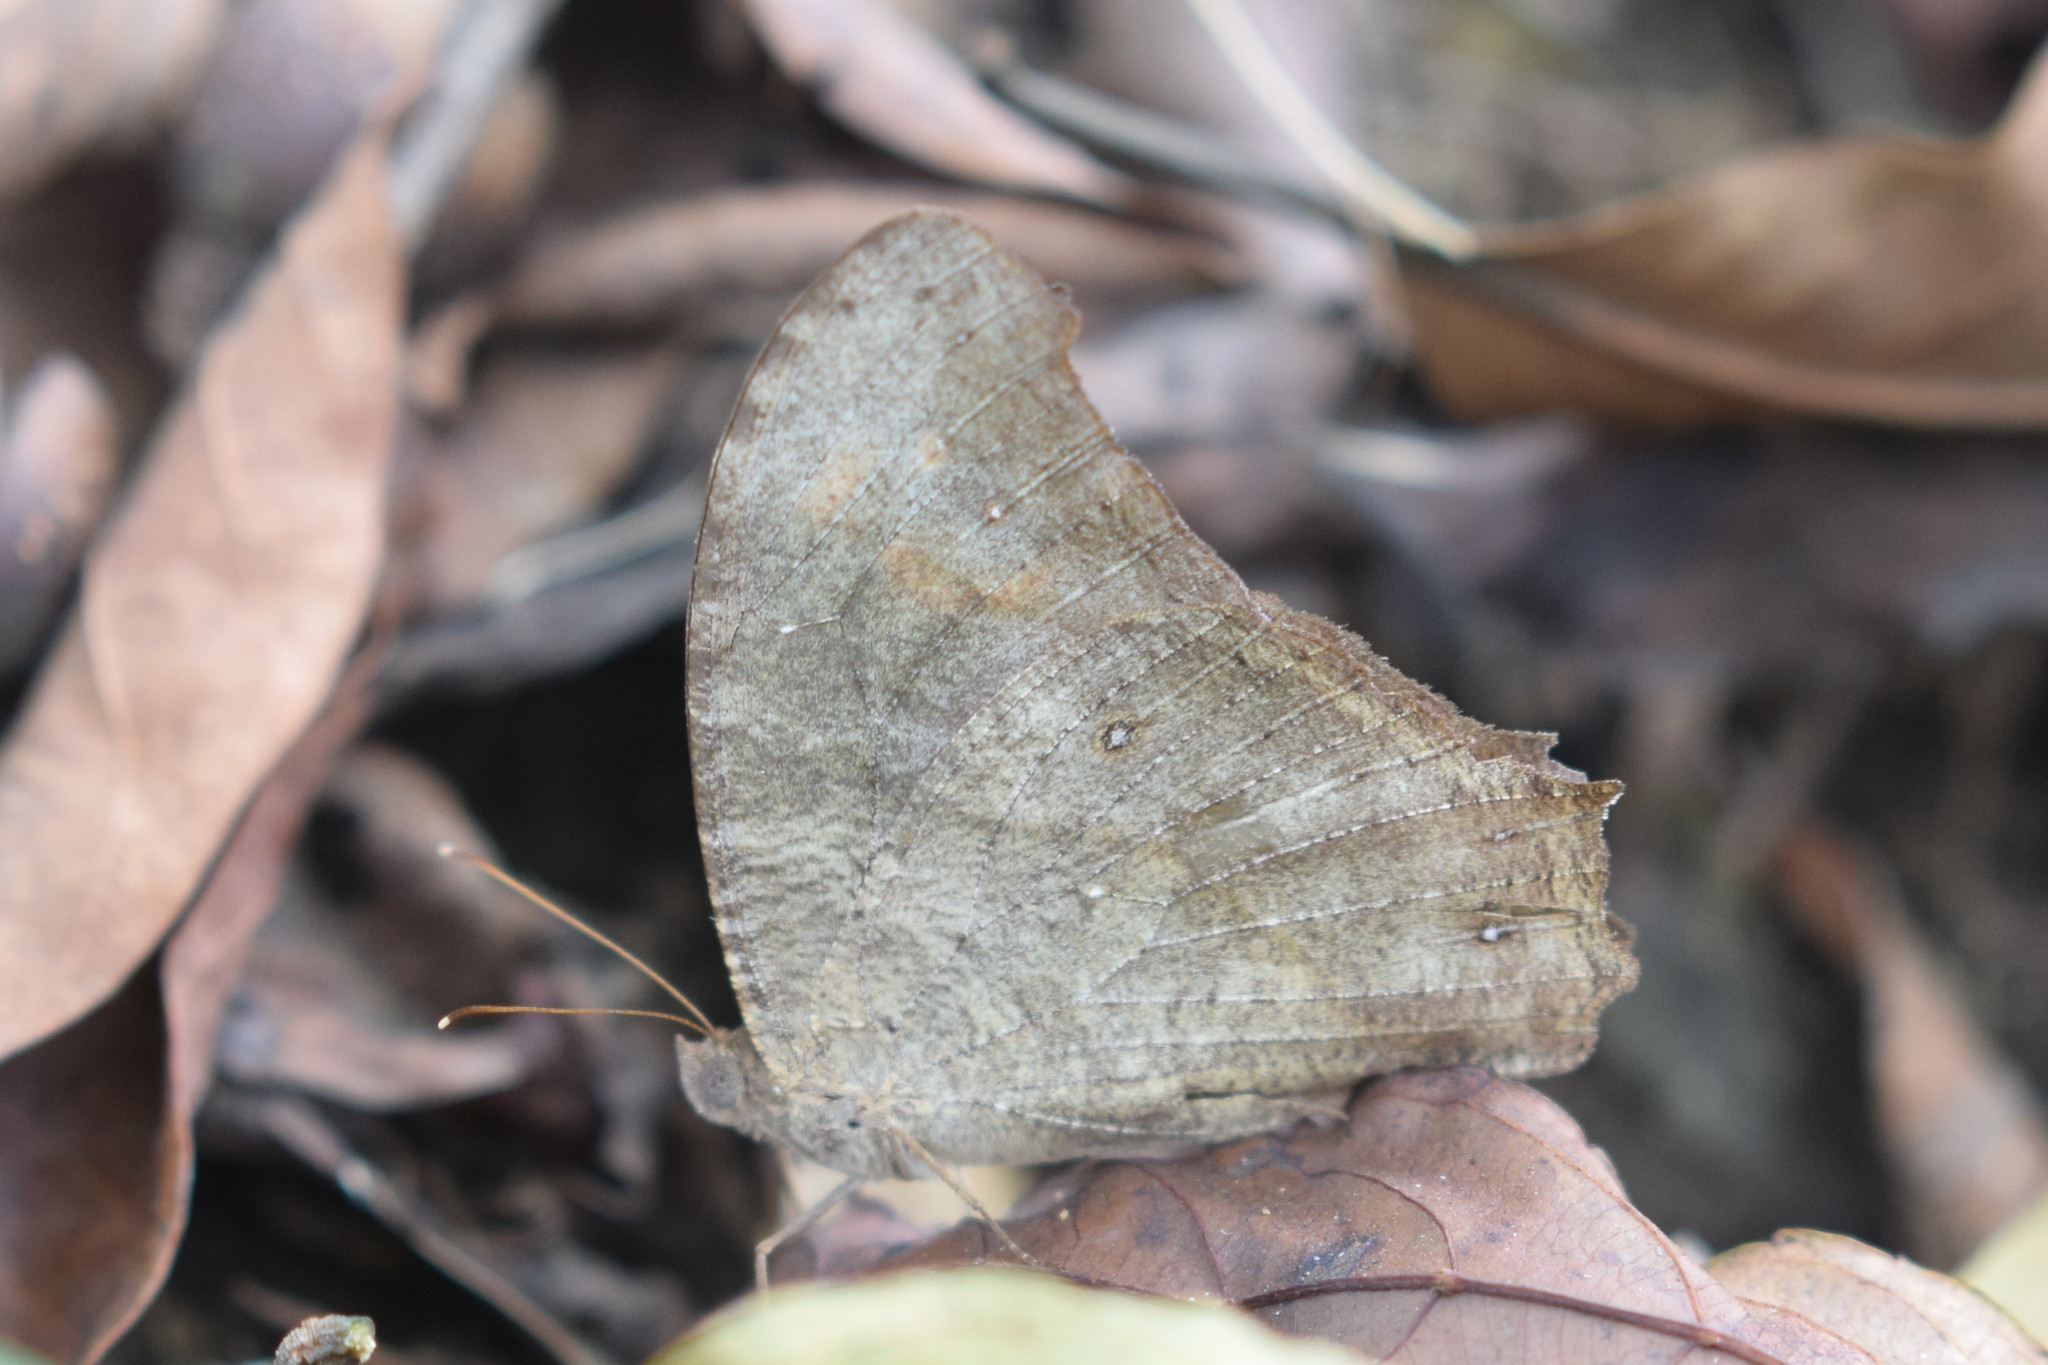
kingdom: Animalia
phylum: Arthropoda
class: Insecta
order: Lepidoptera
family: Nymphalidae
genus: Melanitis
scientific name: Melanitis leda
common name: Twilight brown
